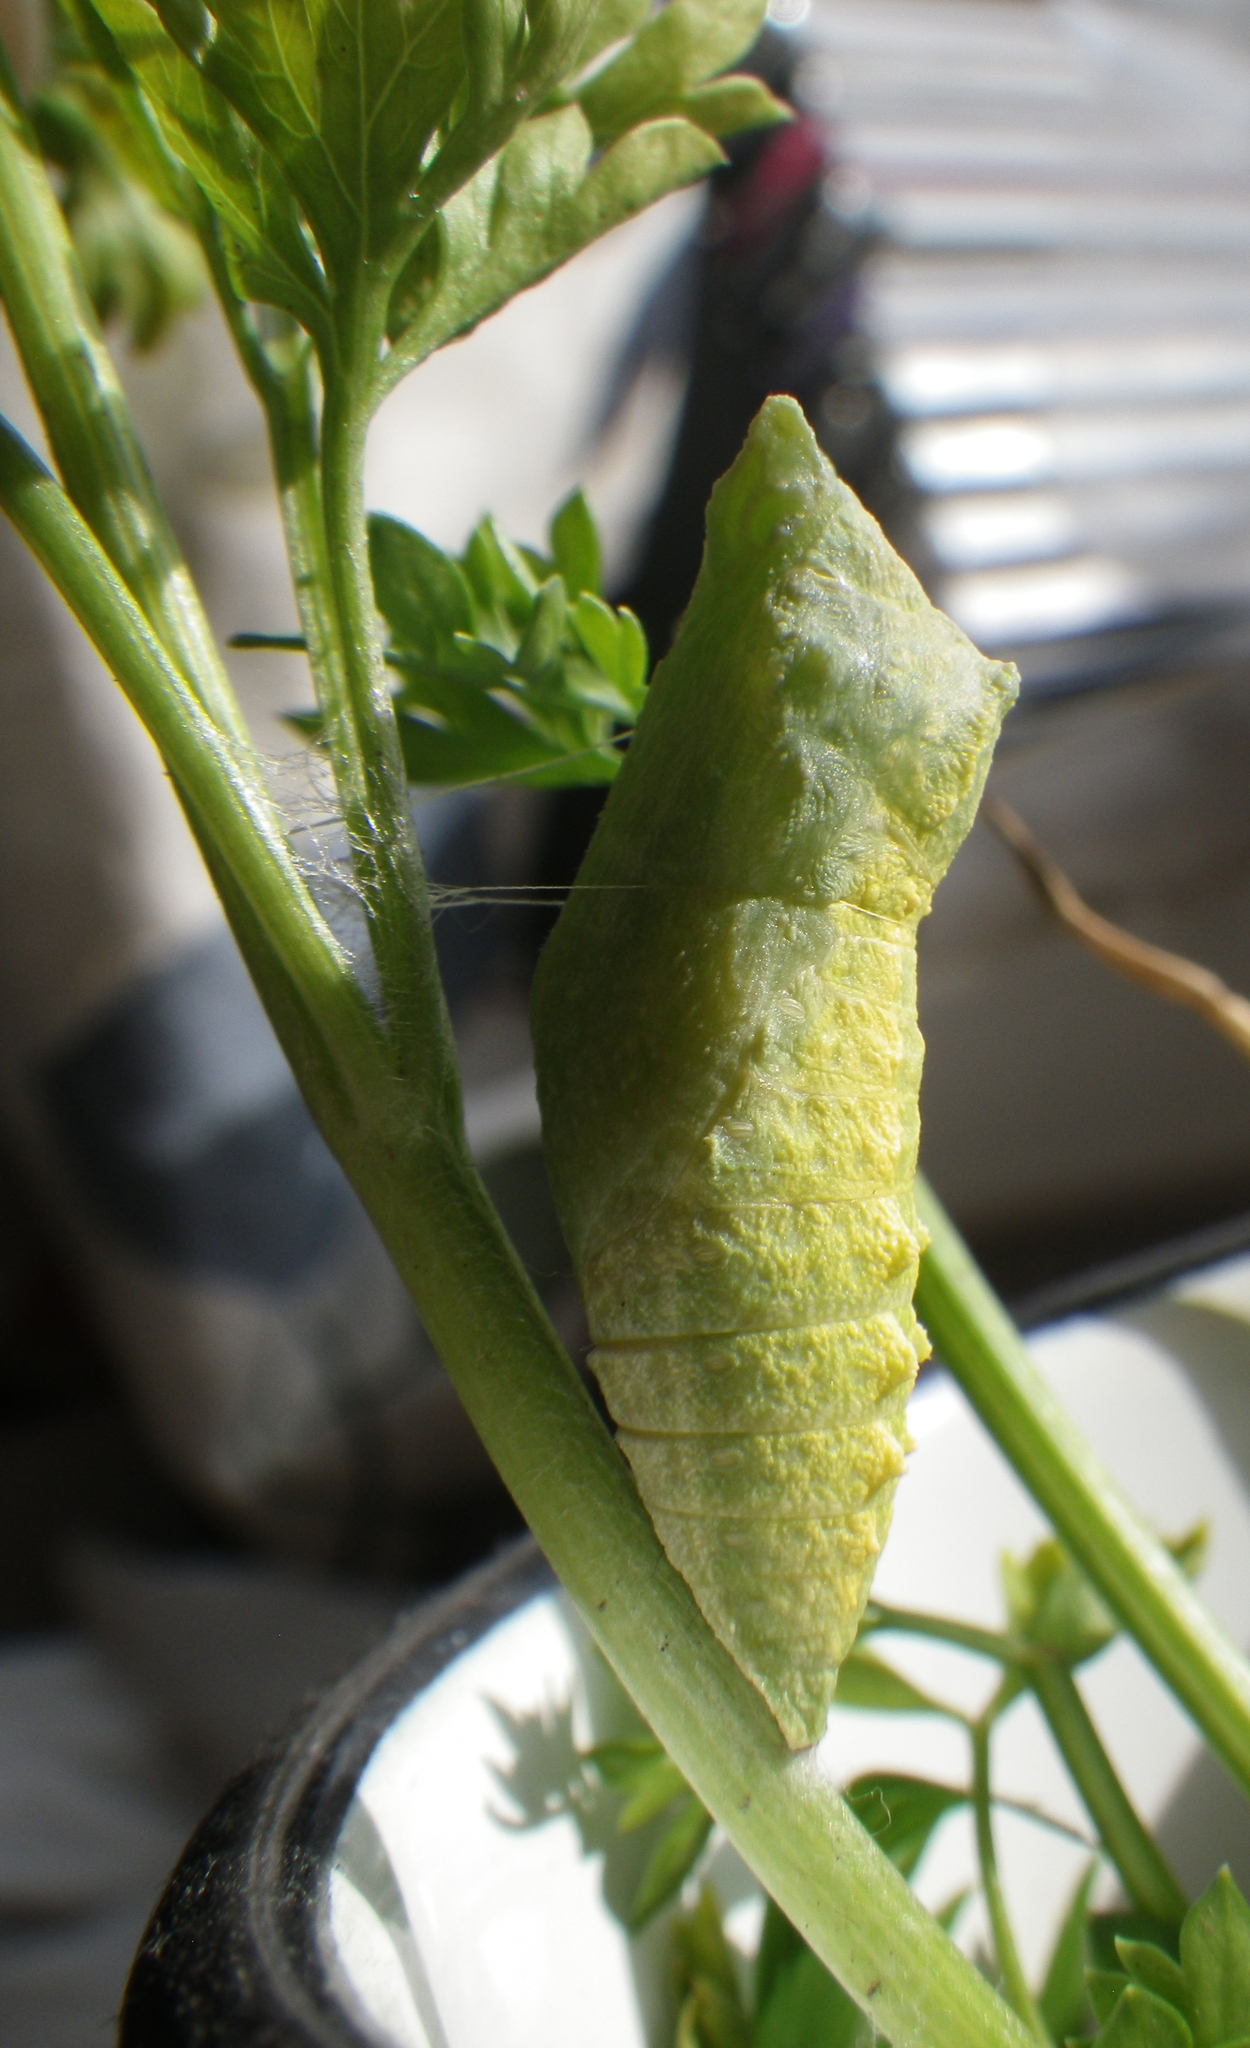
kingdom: Animalia
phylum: Arthropoda
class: Insecta
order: Lepidoptera
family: Papilionidae
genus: Papilio
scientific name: Papilio machaon
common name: Swallowtail
